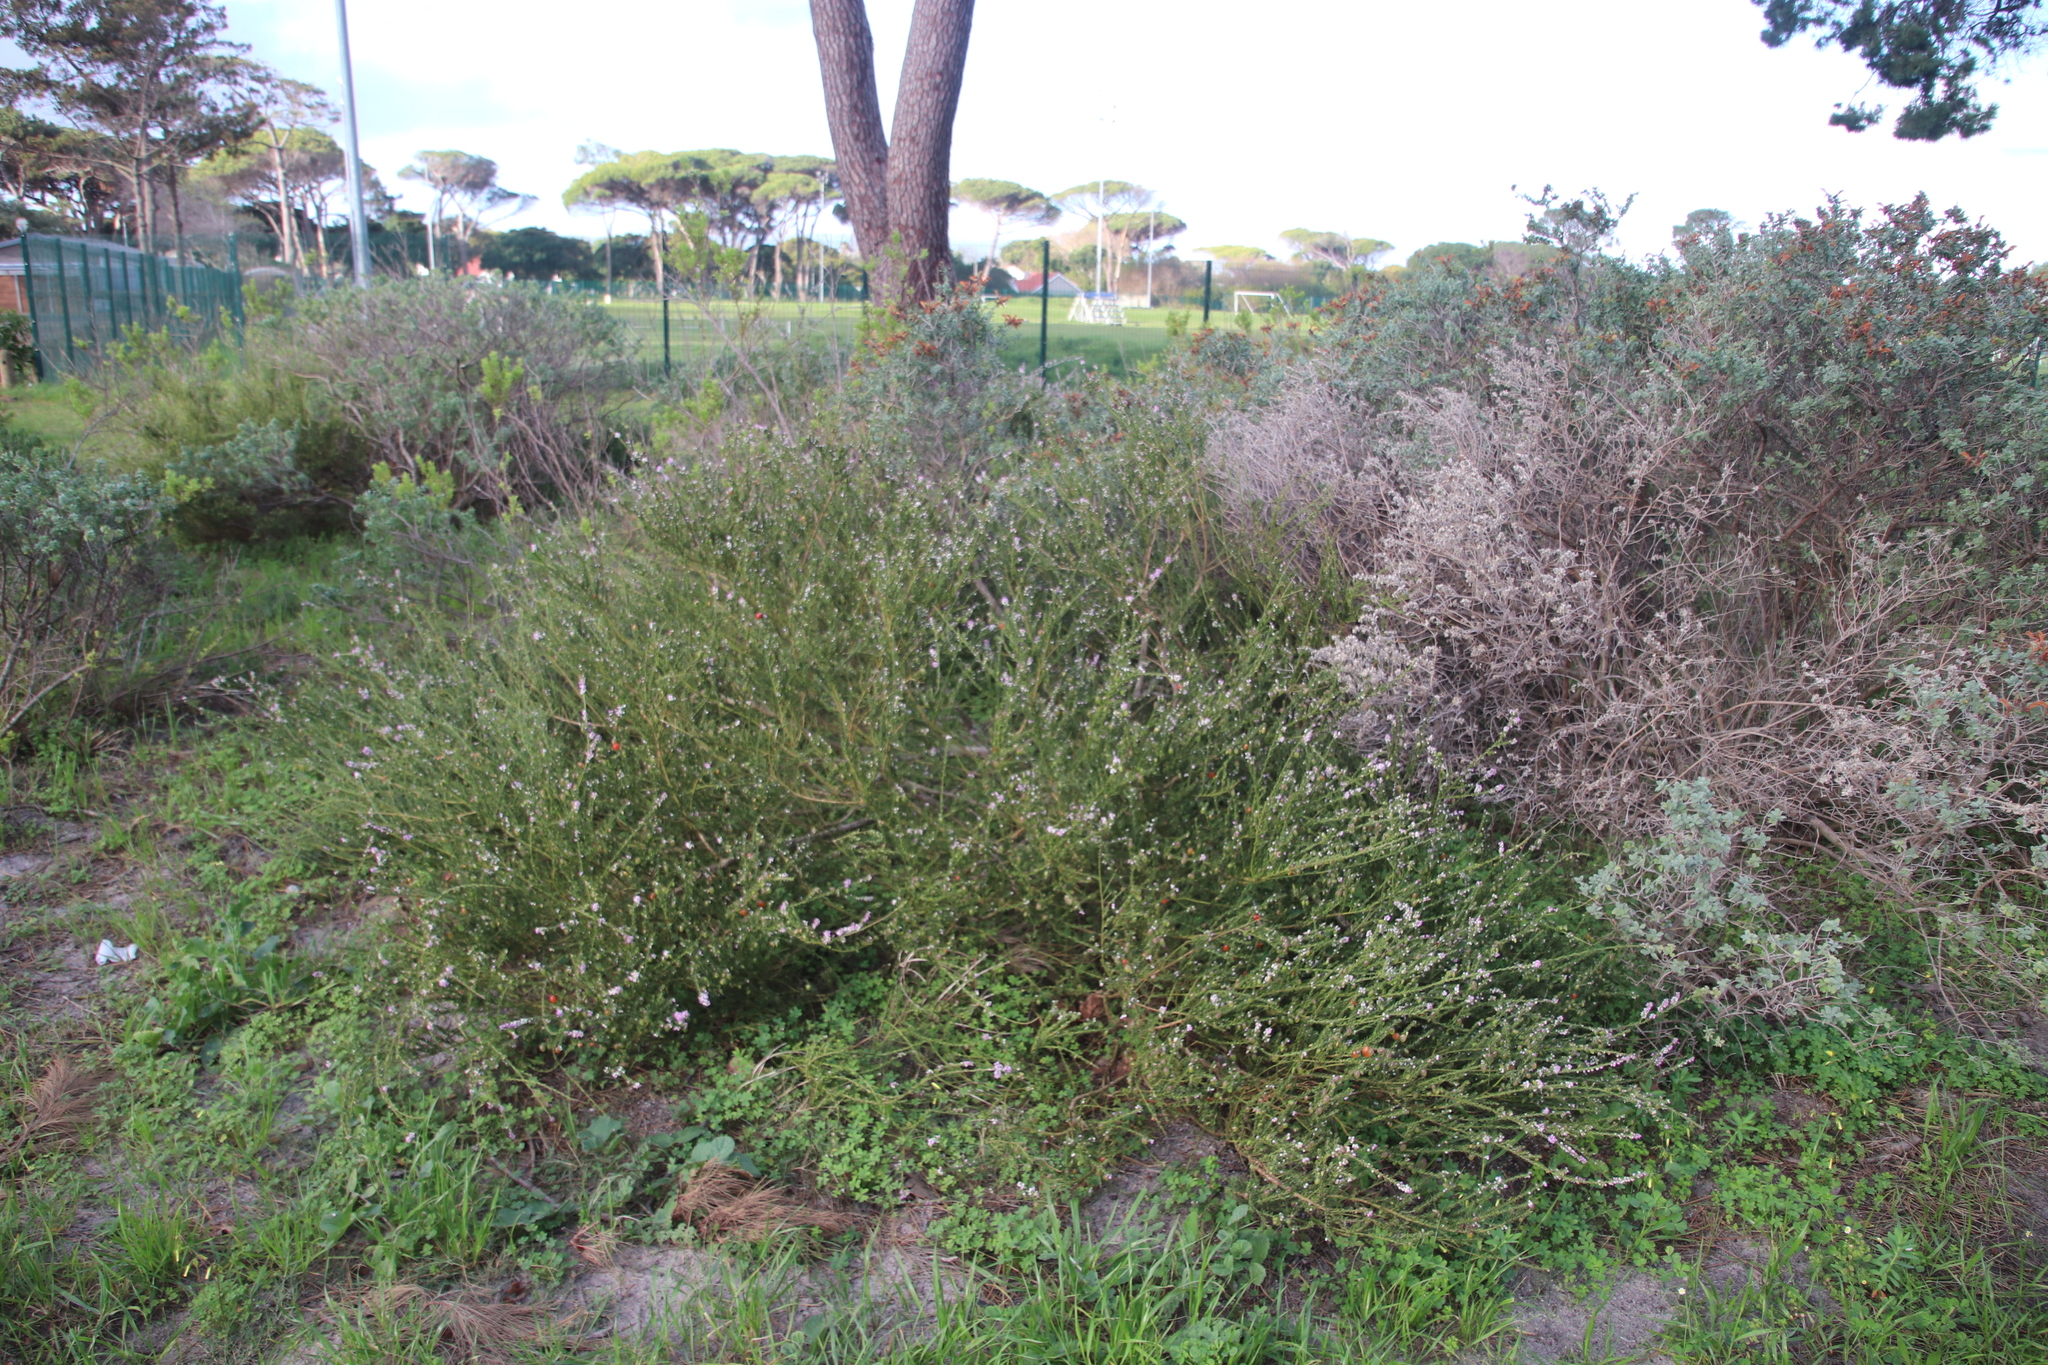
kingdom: Plantae
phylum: Tracheophyta
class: Magnoliopsida
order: Fabales
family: Polygalaceae
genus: Muraltia
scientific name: Muraltia spinosa
